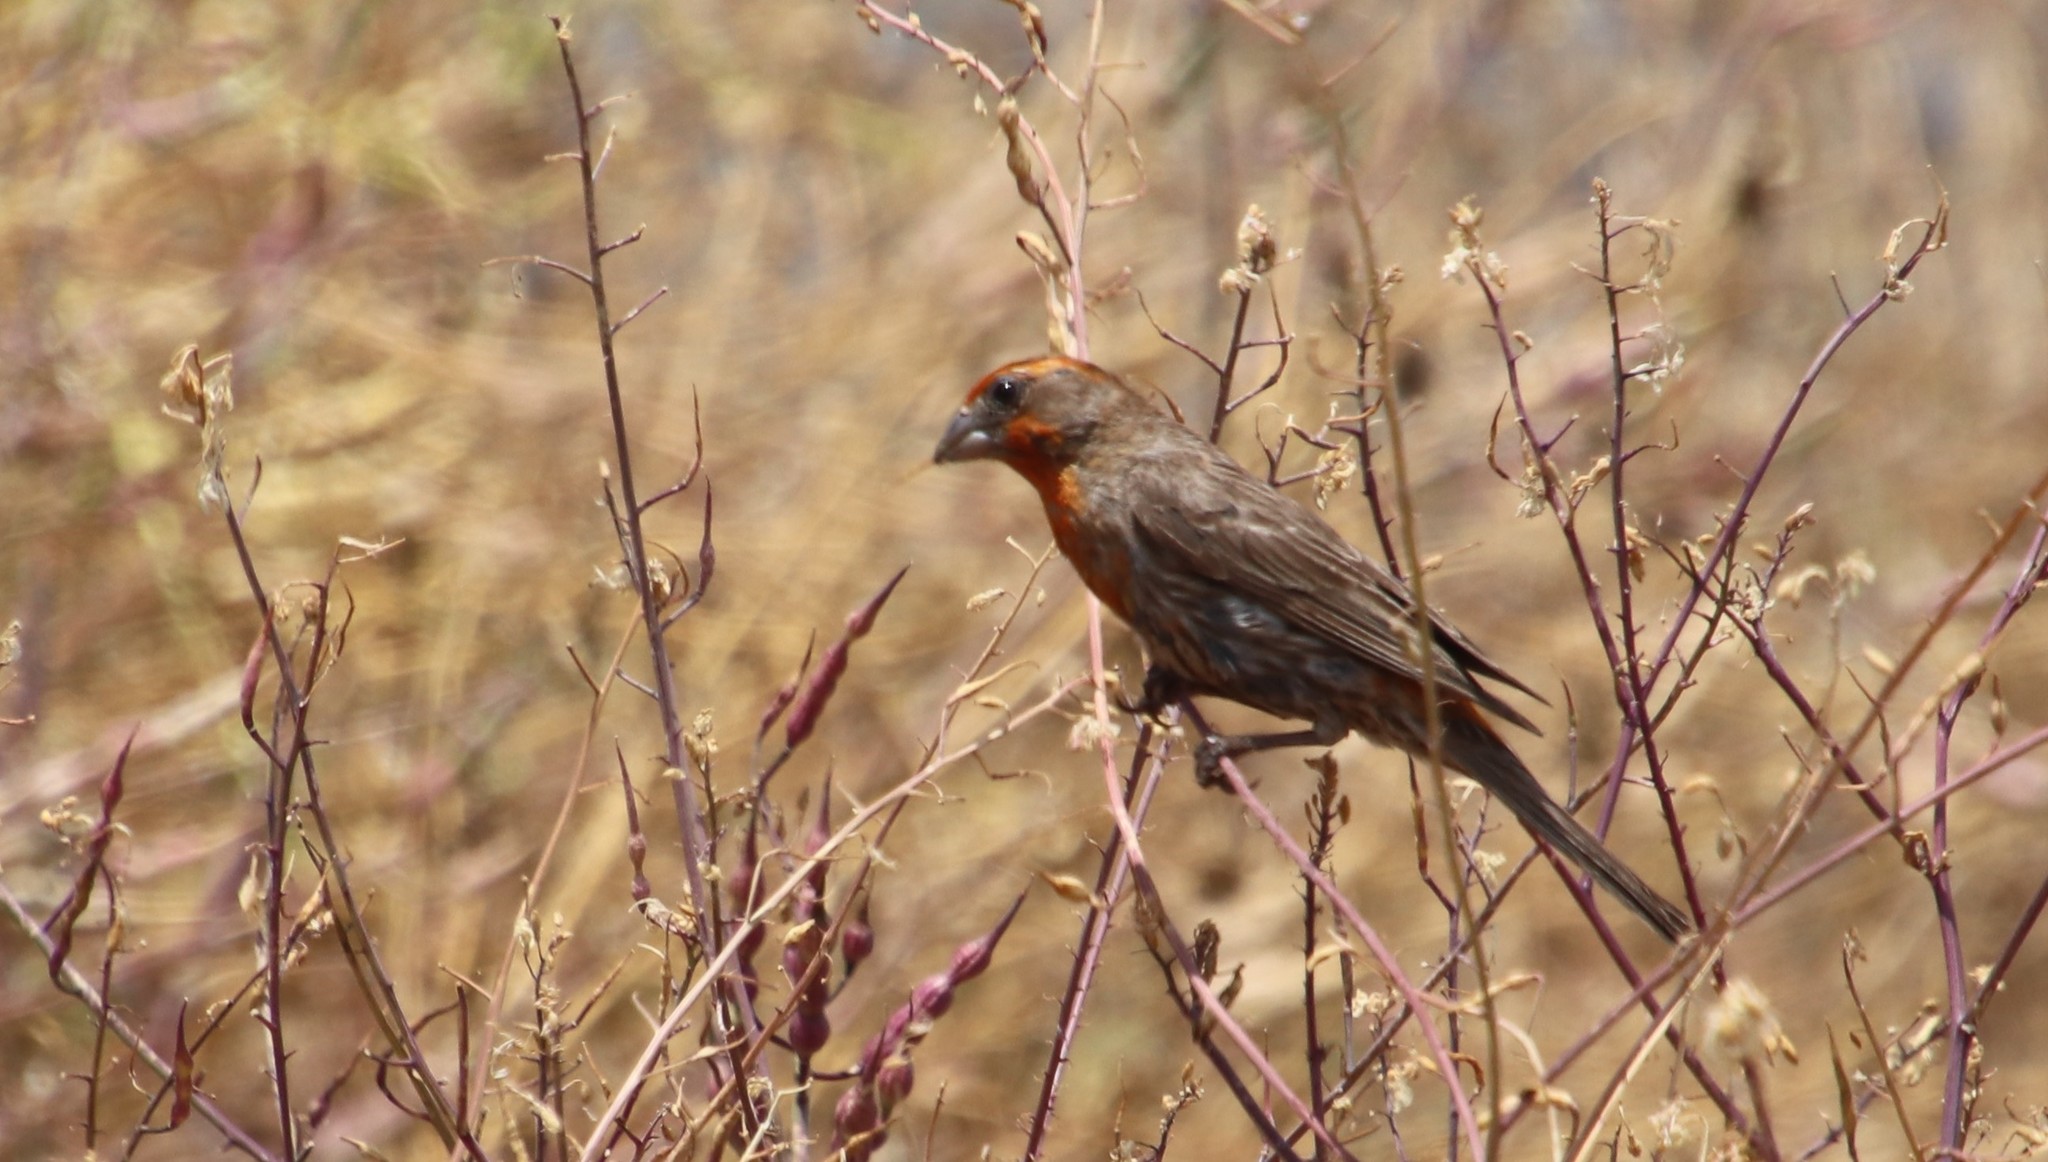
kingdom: Animalia
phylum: Chordata
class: Aves
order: Passeriformes
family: Fringillidae
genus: Haemorhous
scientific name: Haemorhous mexicanus
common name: House finch
